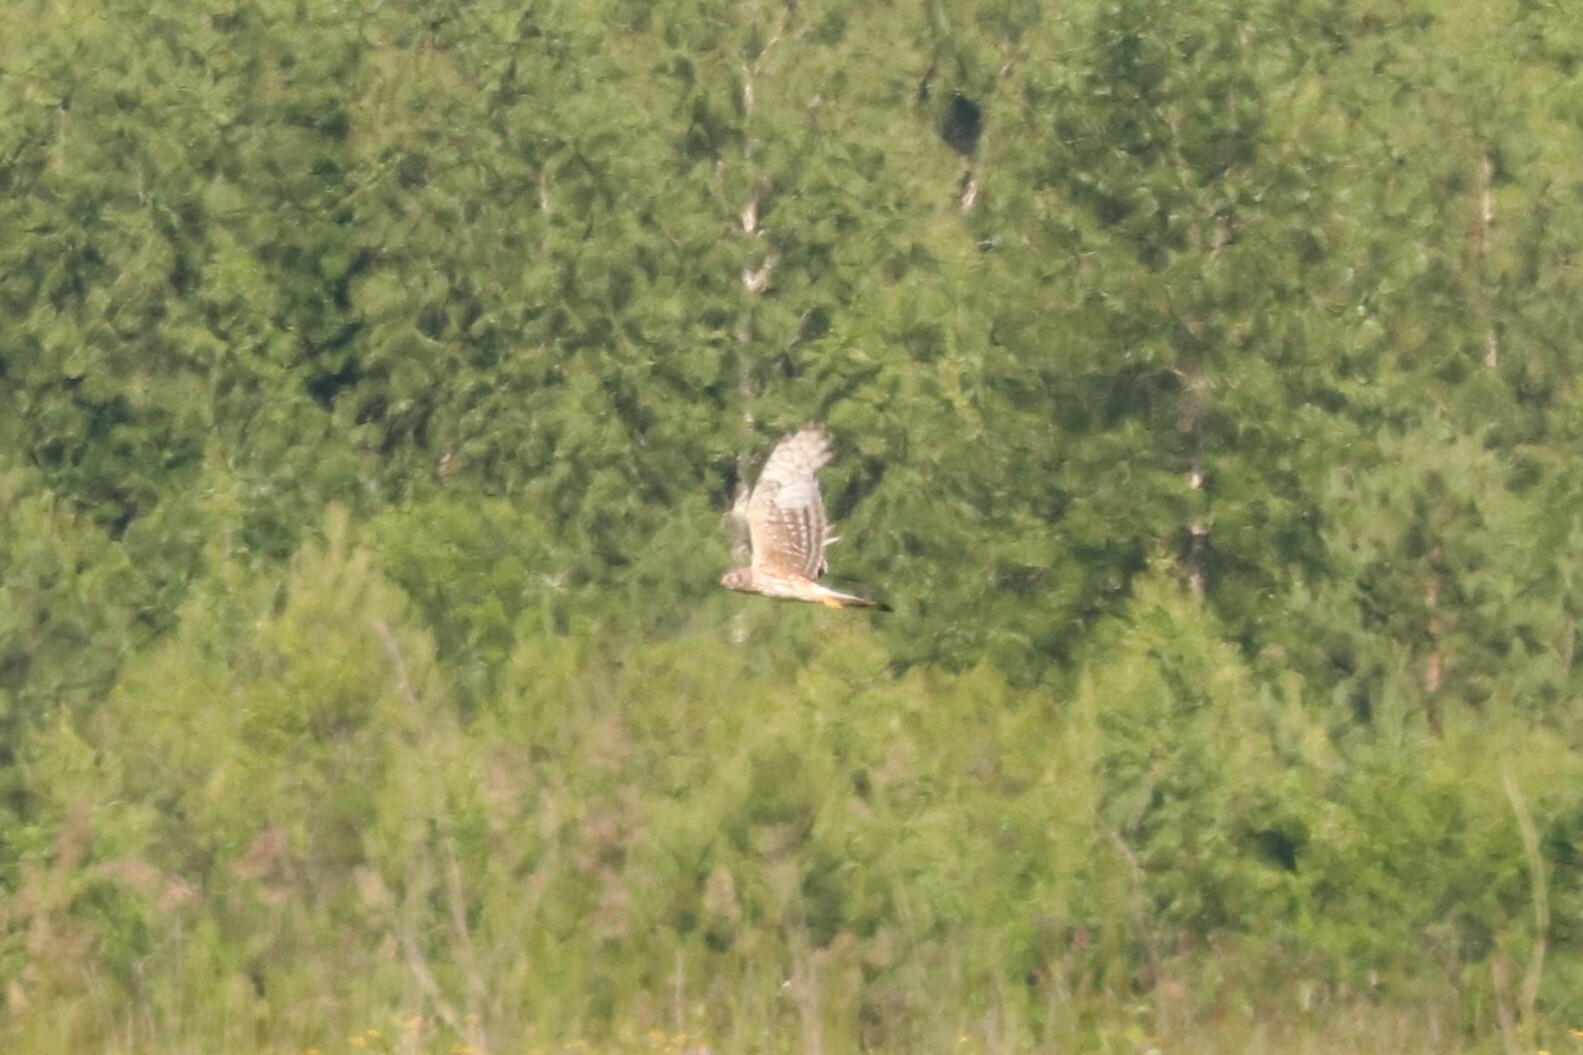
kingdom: Animalia
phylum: Chordata
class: Aves
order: Accipitriformes
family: Accipitridae
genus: Circus
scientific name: Circus cyaneus
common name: Hen harrier
